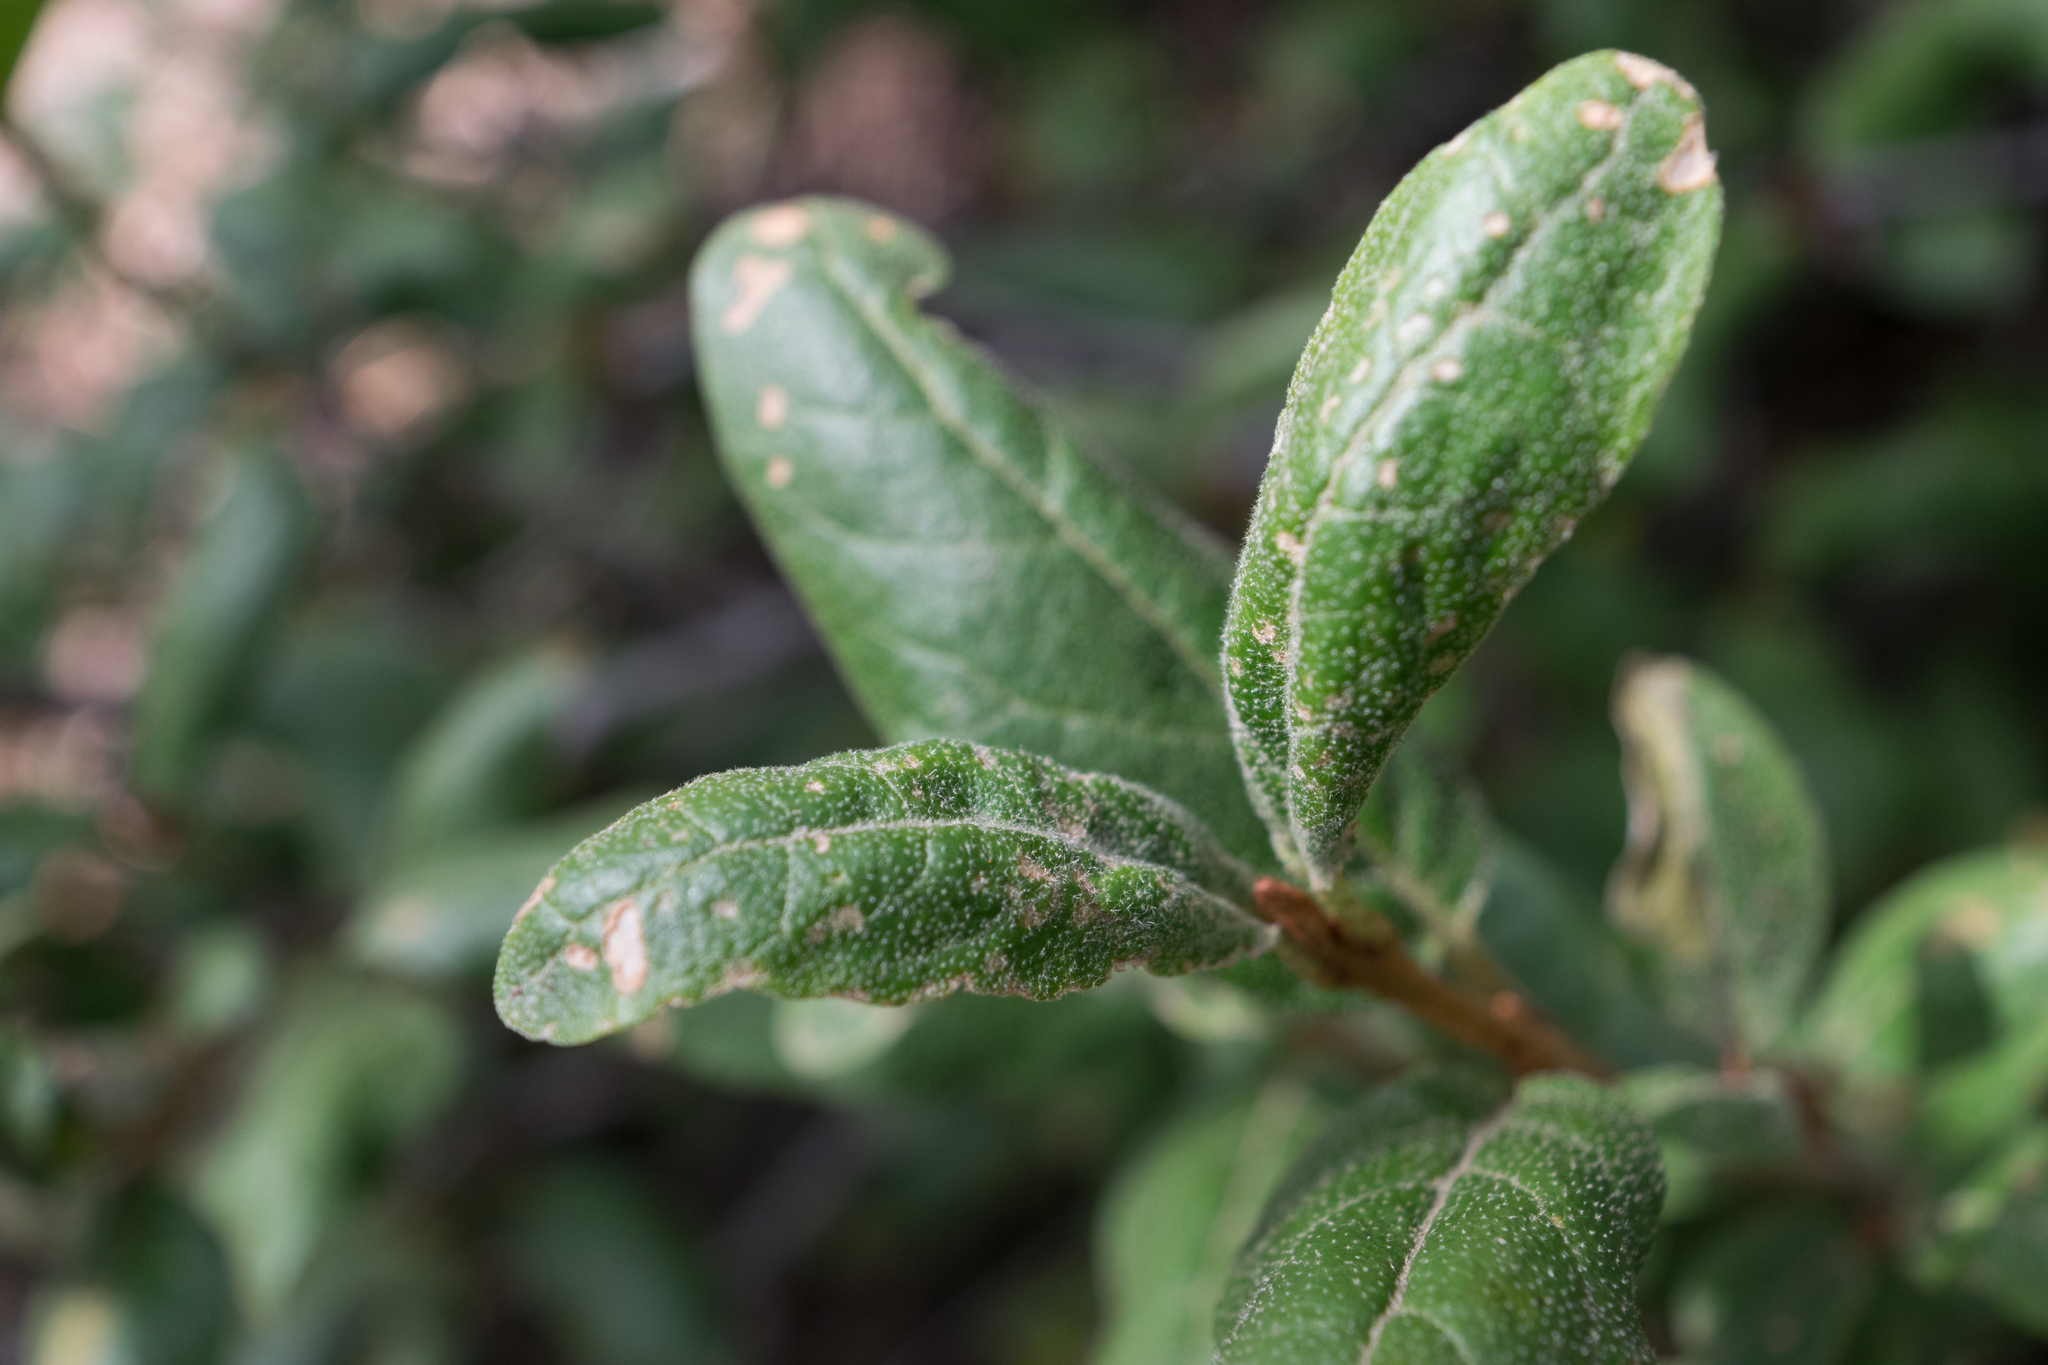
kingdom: Plantae
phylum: Tracheophyta
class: Magnoliopsida
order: Rosales
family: Elaeagnaceae
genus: Shepherdia
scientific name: Shepherdia canadensis
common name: Soapberry
